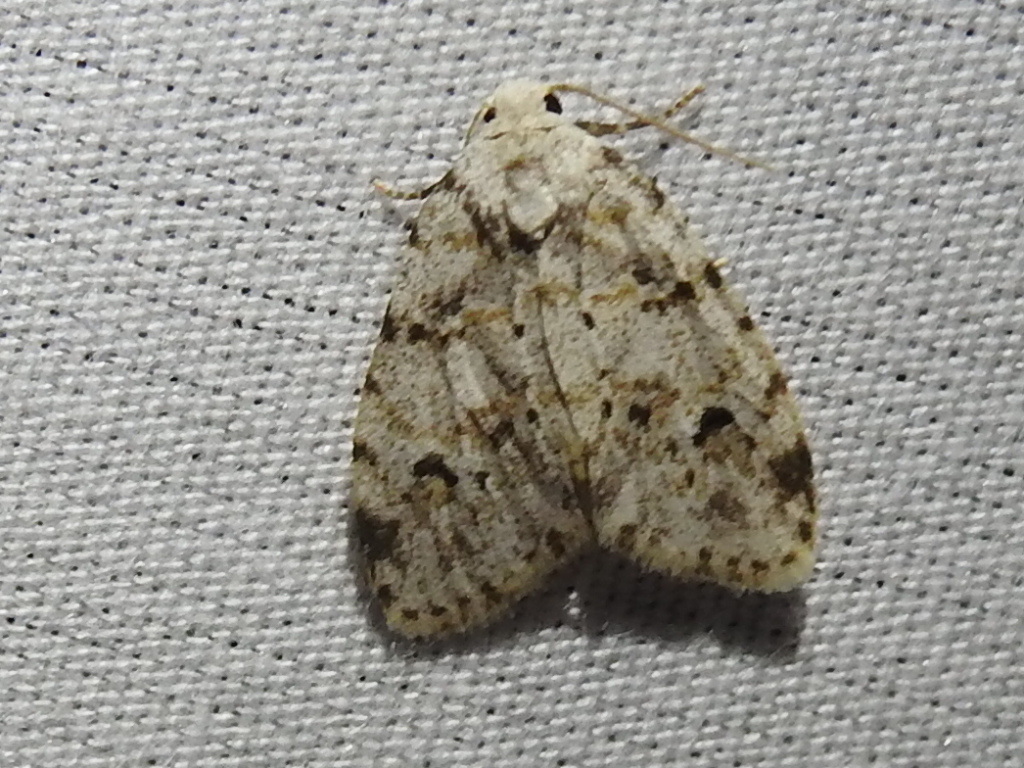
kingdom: Animalia
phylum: Arthropoda
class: Insecta
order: Lepidoptera
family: Erebidae
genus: Clemensia
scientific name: Clemensia ochreata
